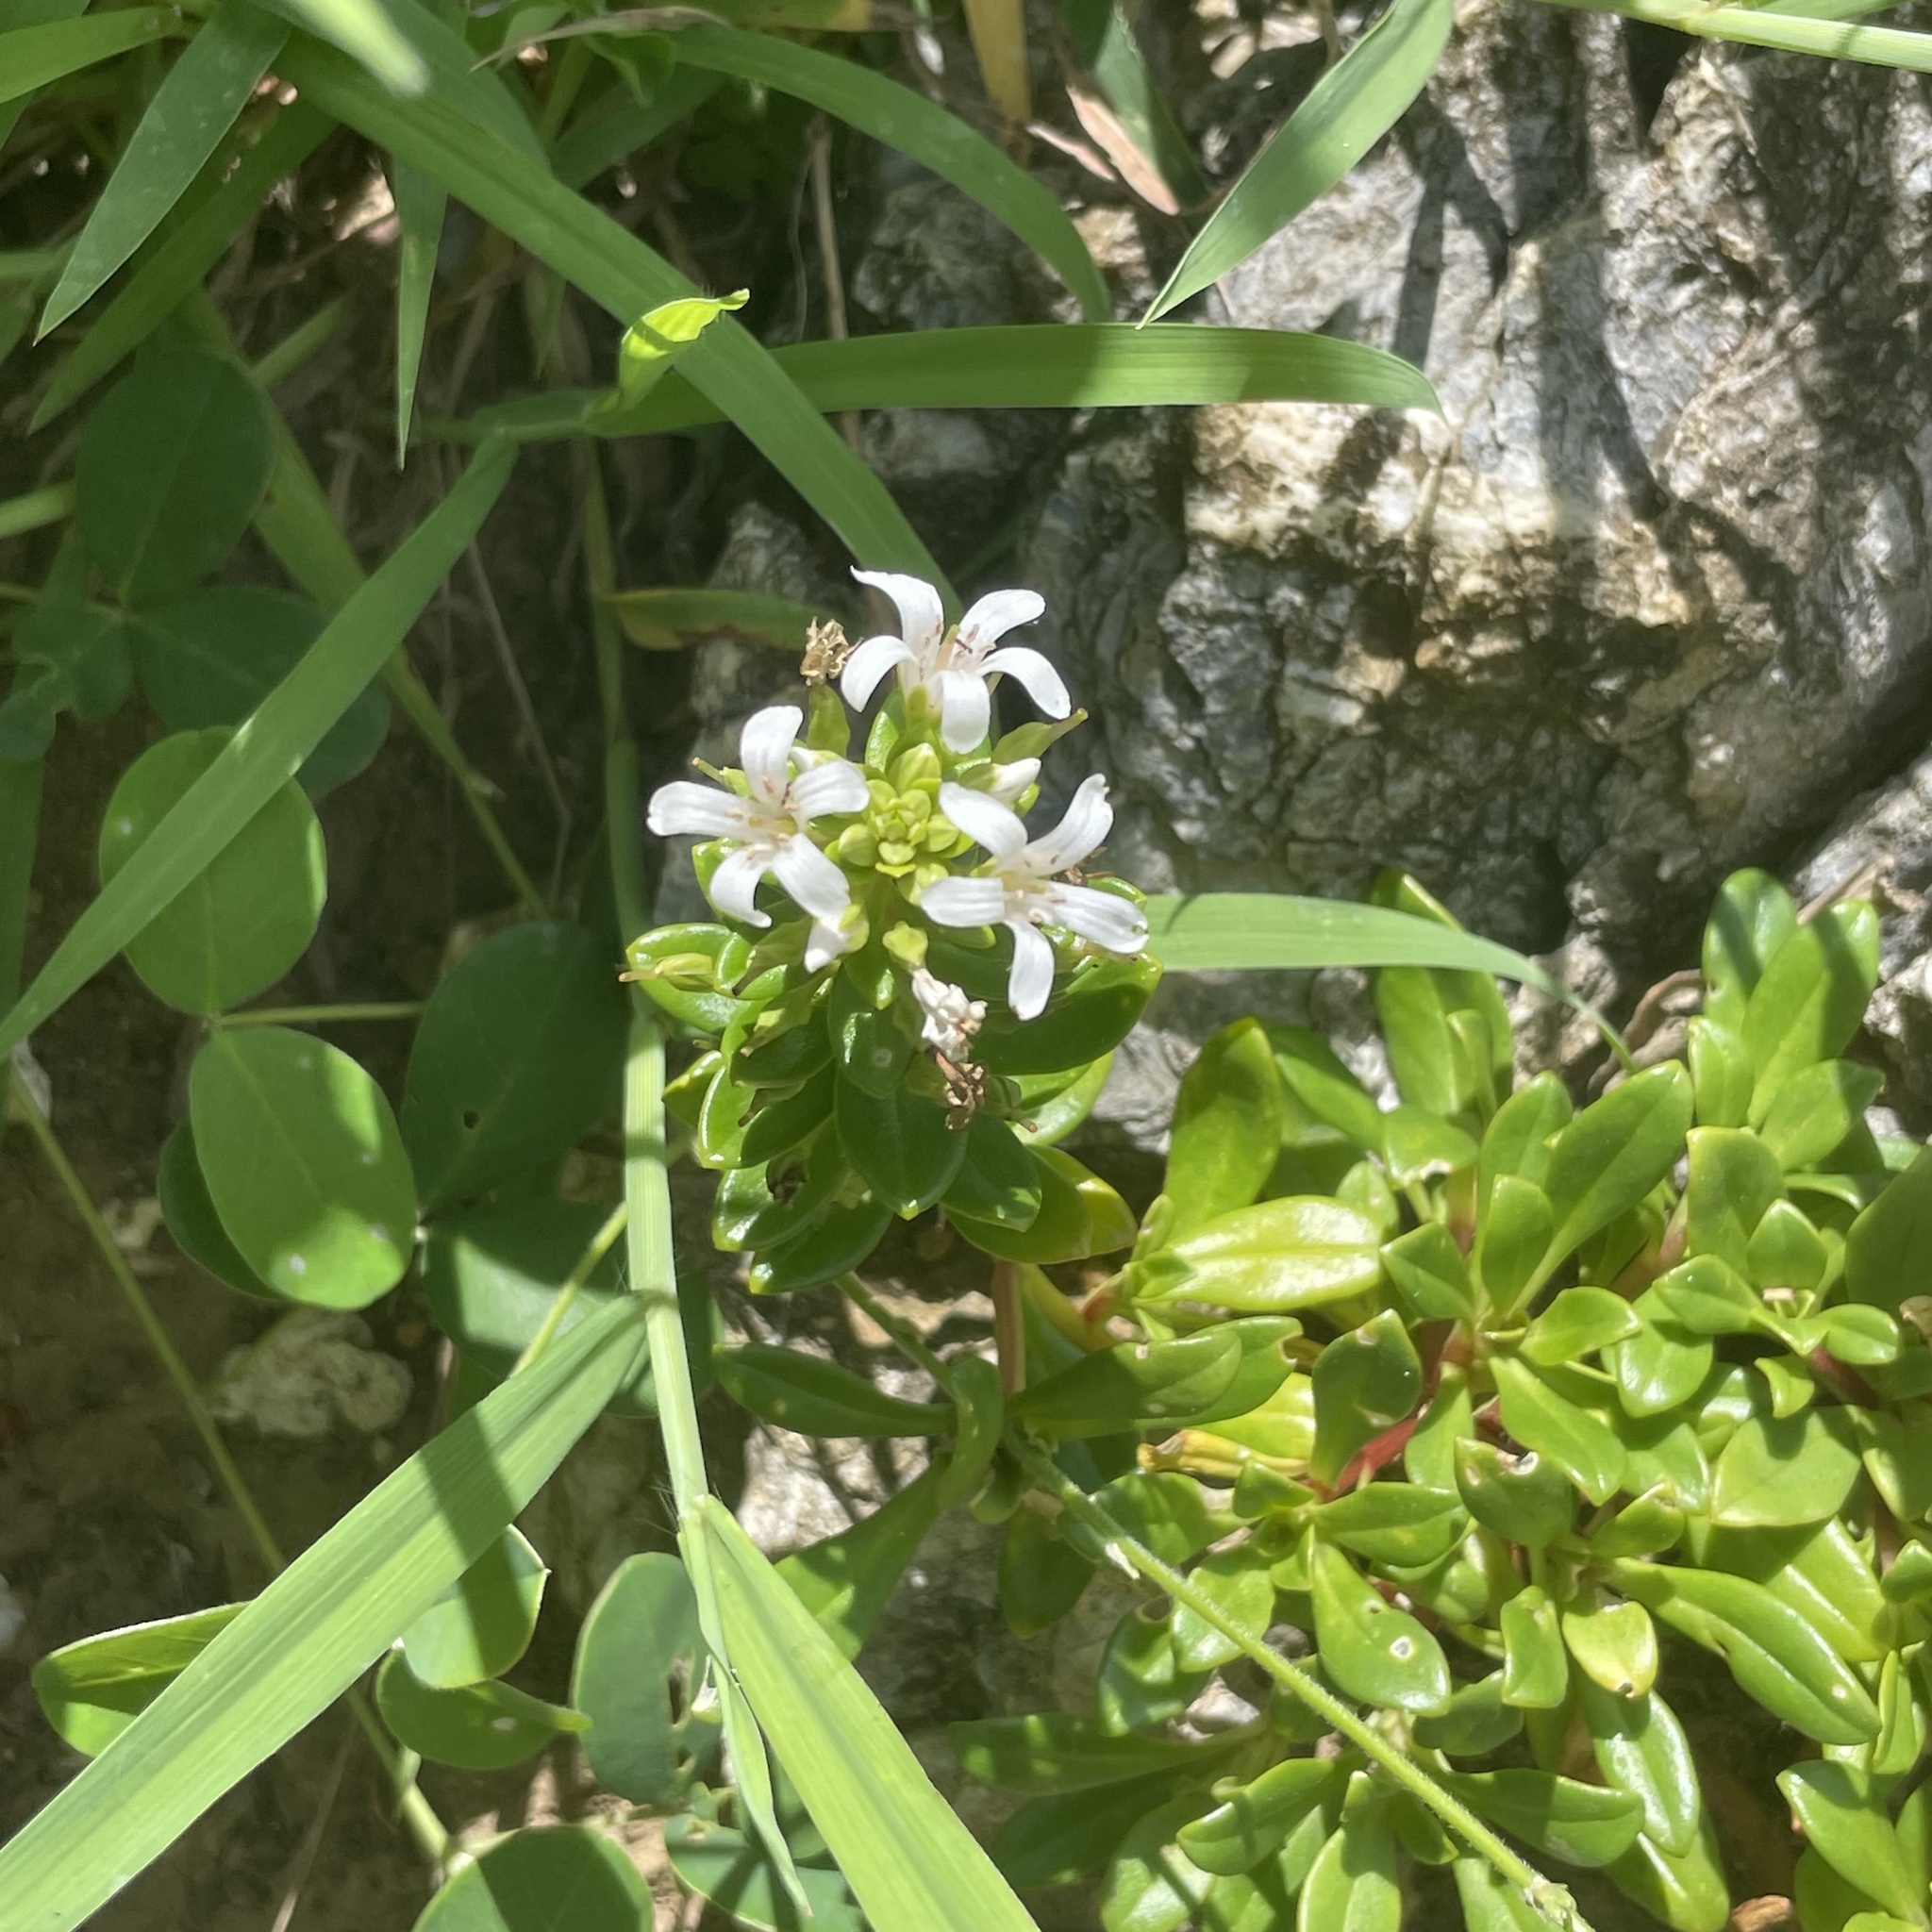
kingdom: Plantae
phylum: Tracheophyta
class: Magnoliopsida
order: Ericales
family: Primulaceae
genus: Lysimachia
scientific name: Lysimachia mauritiana
